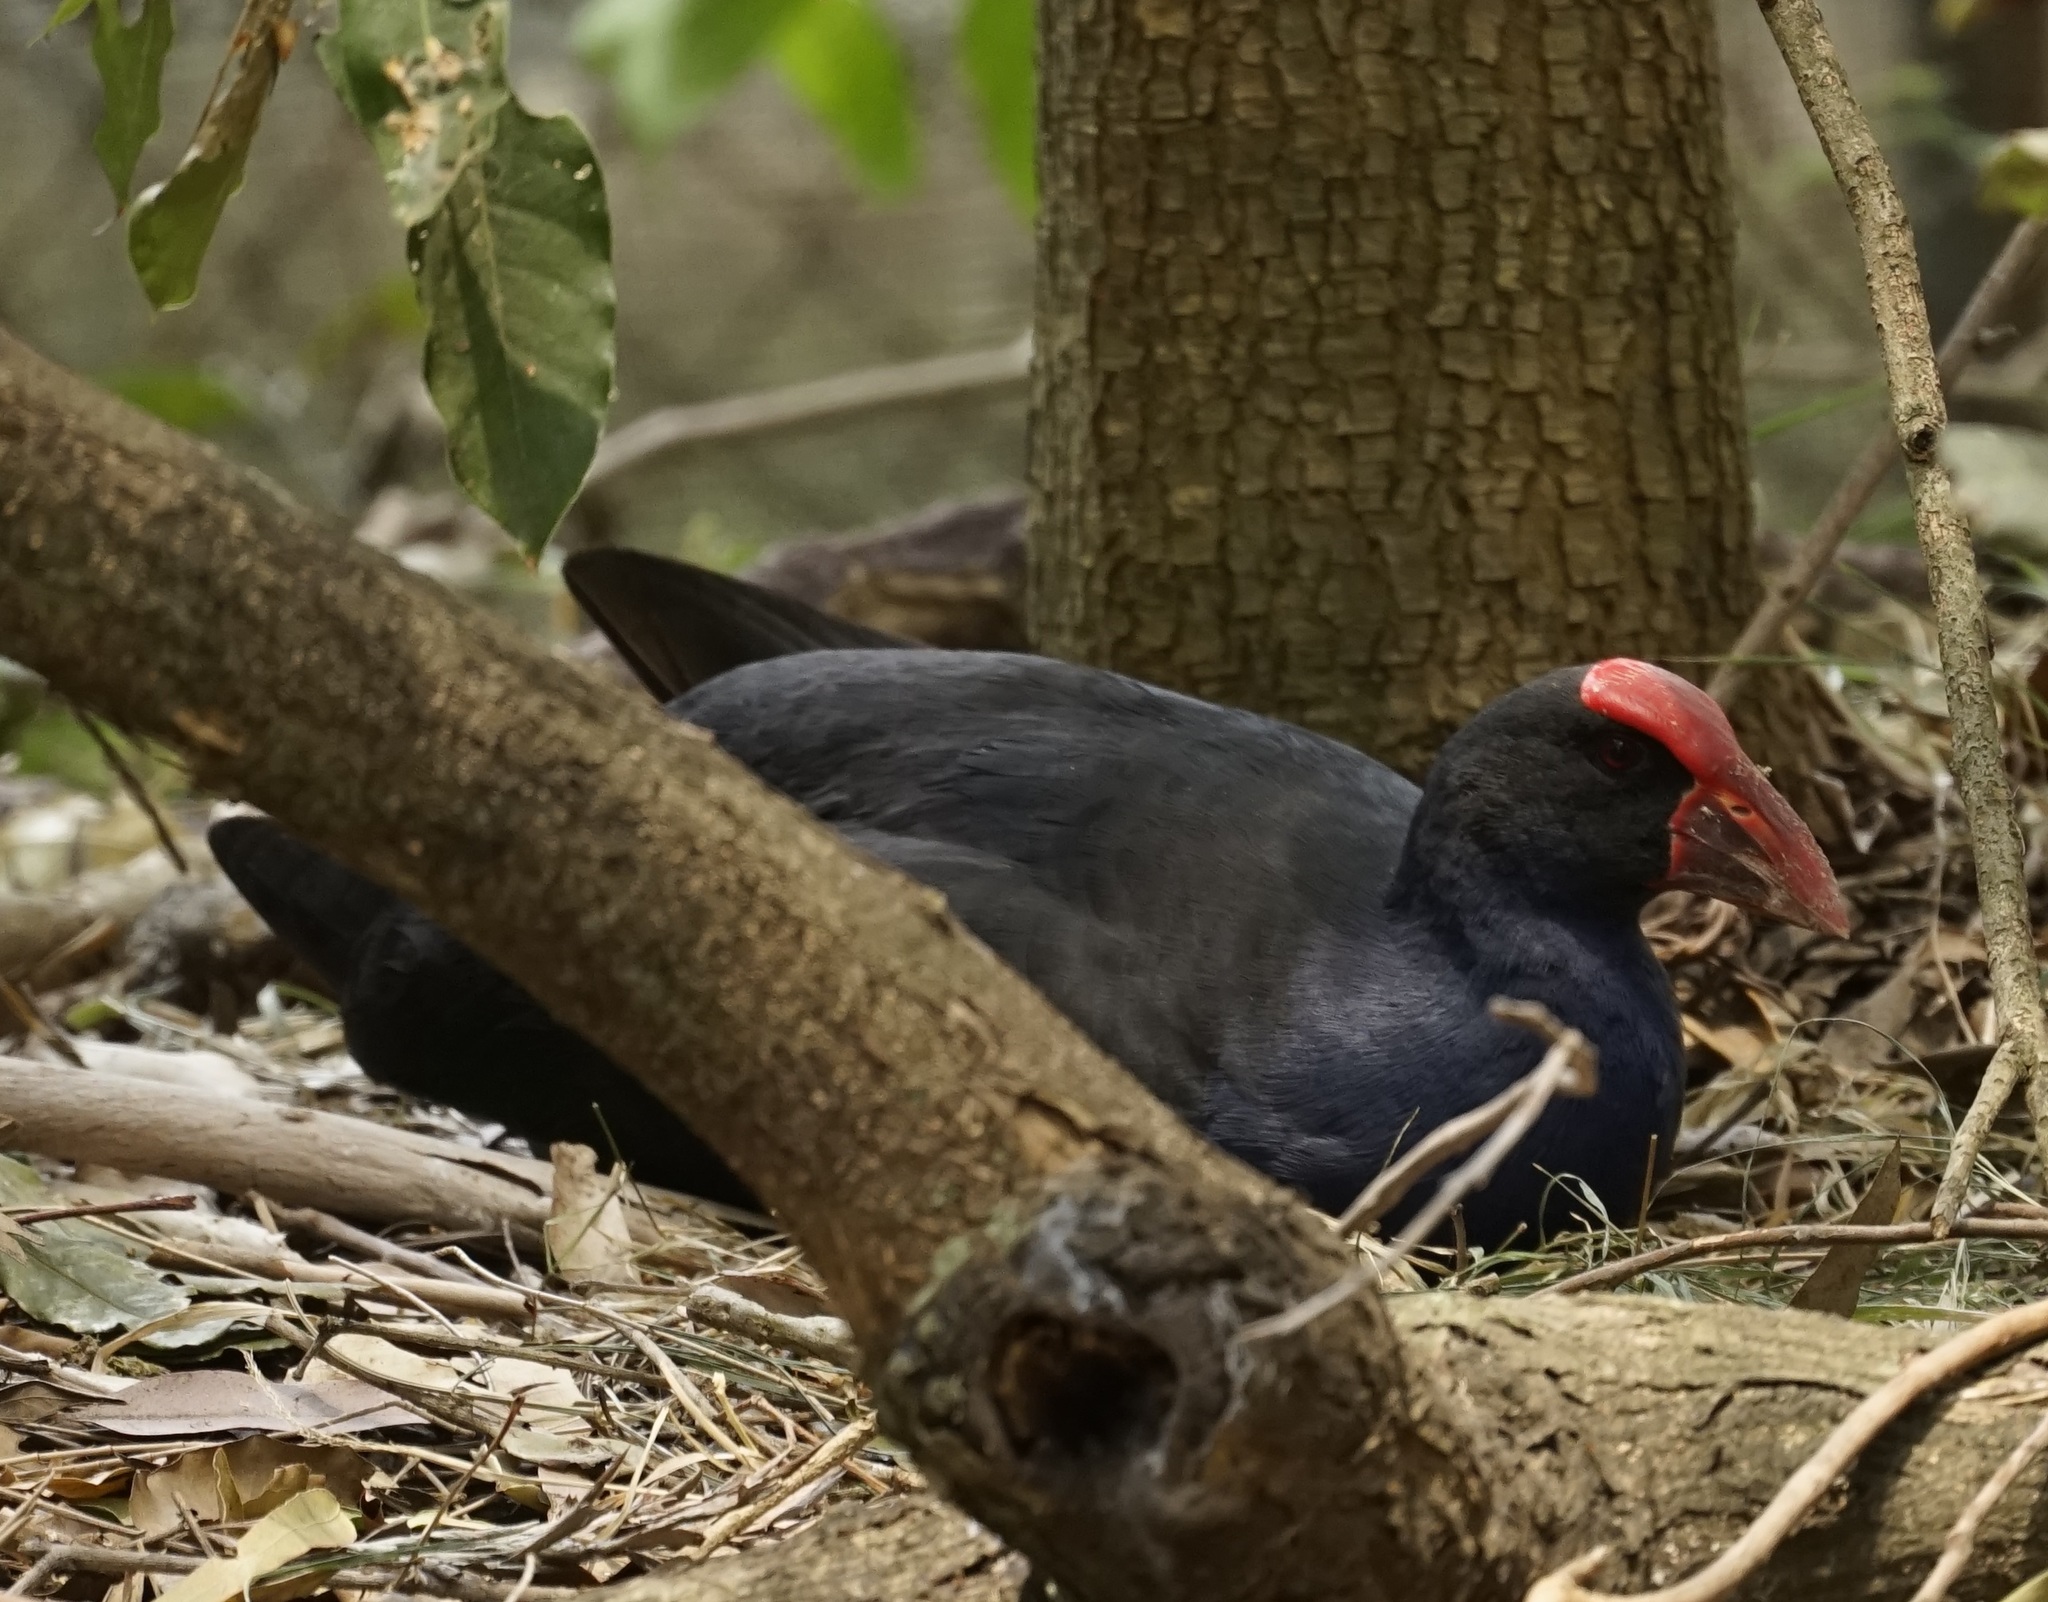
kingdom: Animalia
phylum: Chordata
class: Aves
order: Gruiformes
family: Rallidae
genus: Porphyrio
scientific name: Porphyrio melanotus
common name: Australasian swamphen
